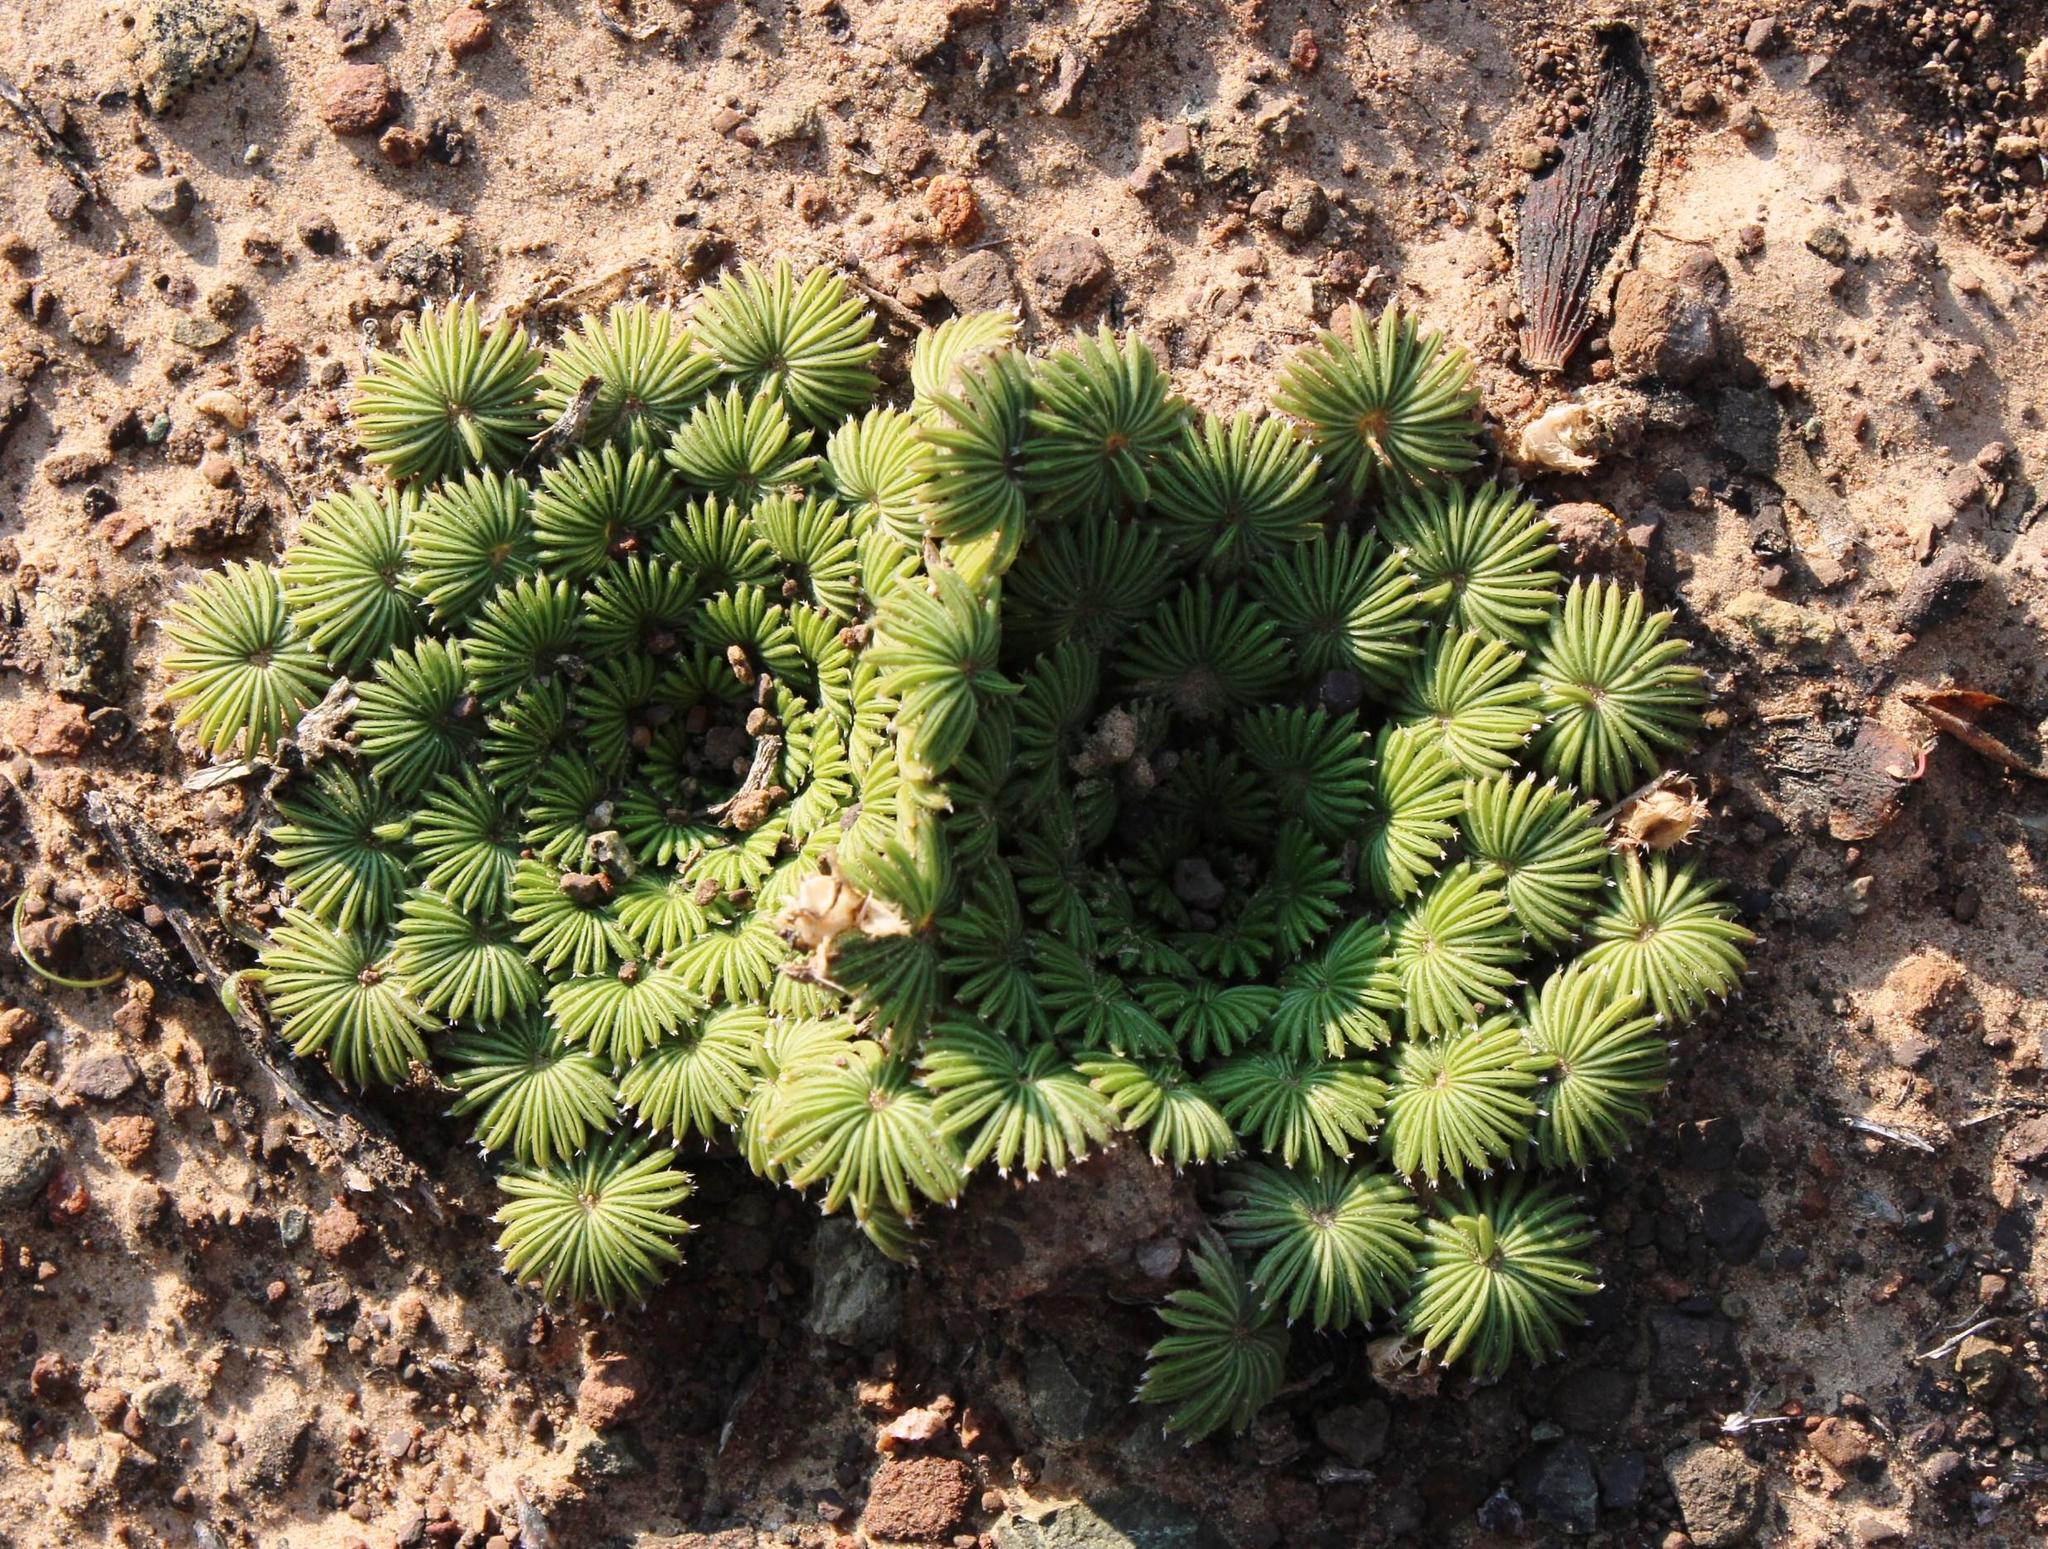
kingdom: Plantae
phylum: Tracheophyta
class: Magnoliopsida
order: Oxalidales
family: Oxalidaceae
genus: Oxalis
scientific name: Oxalis palmifrons
